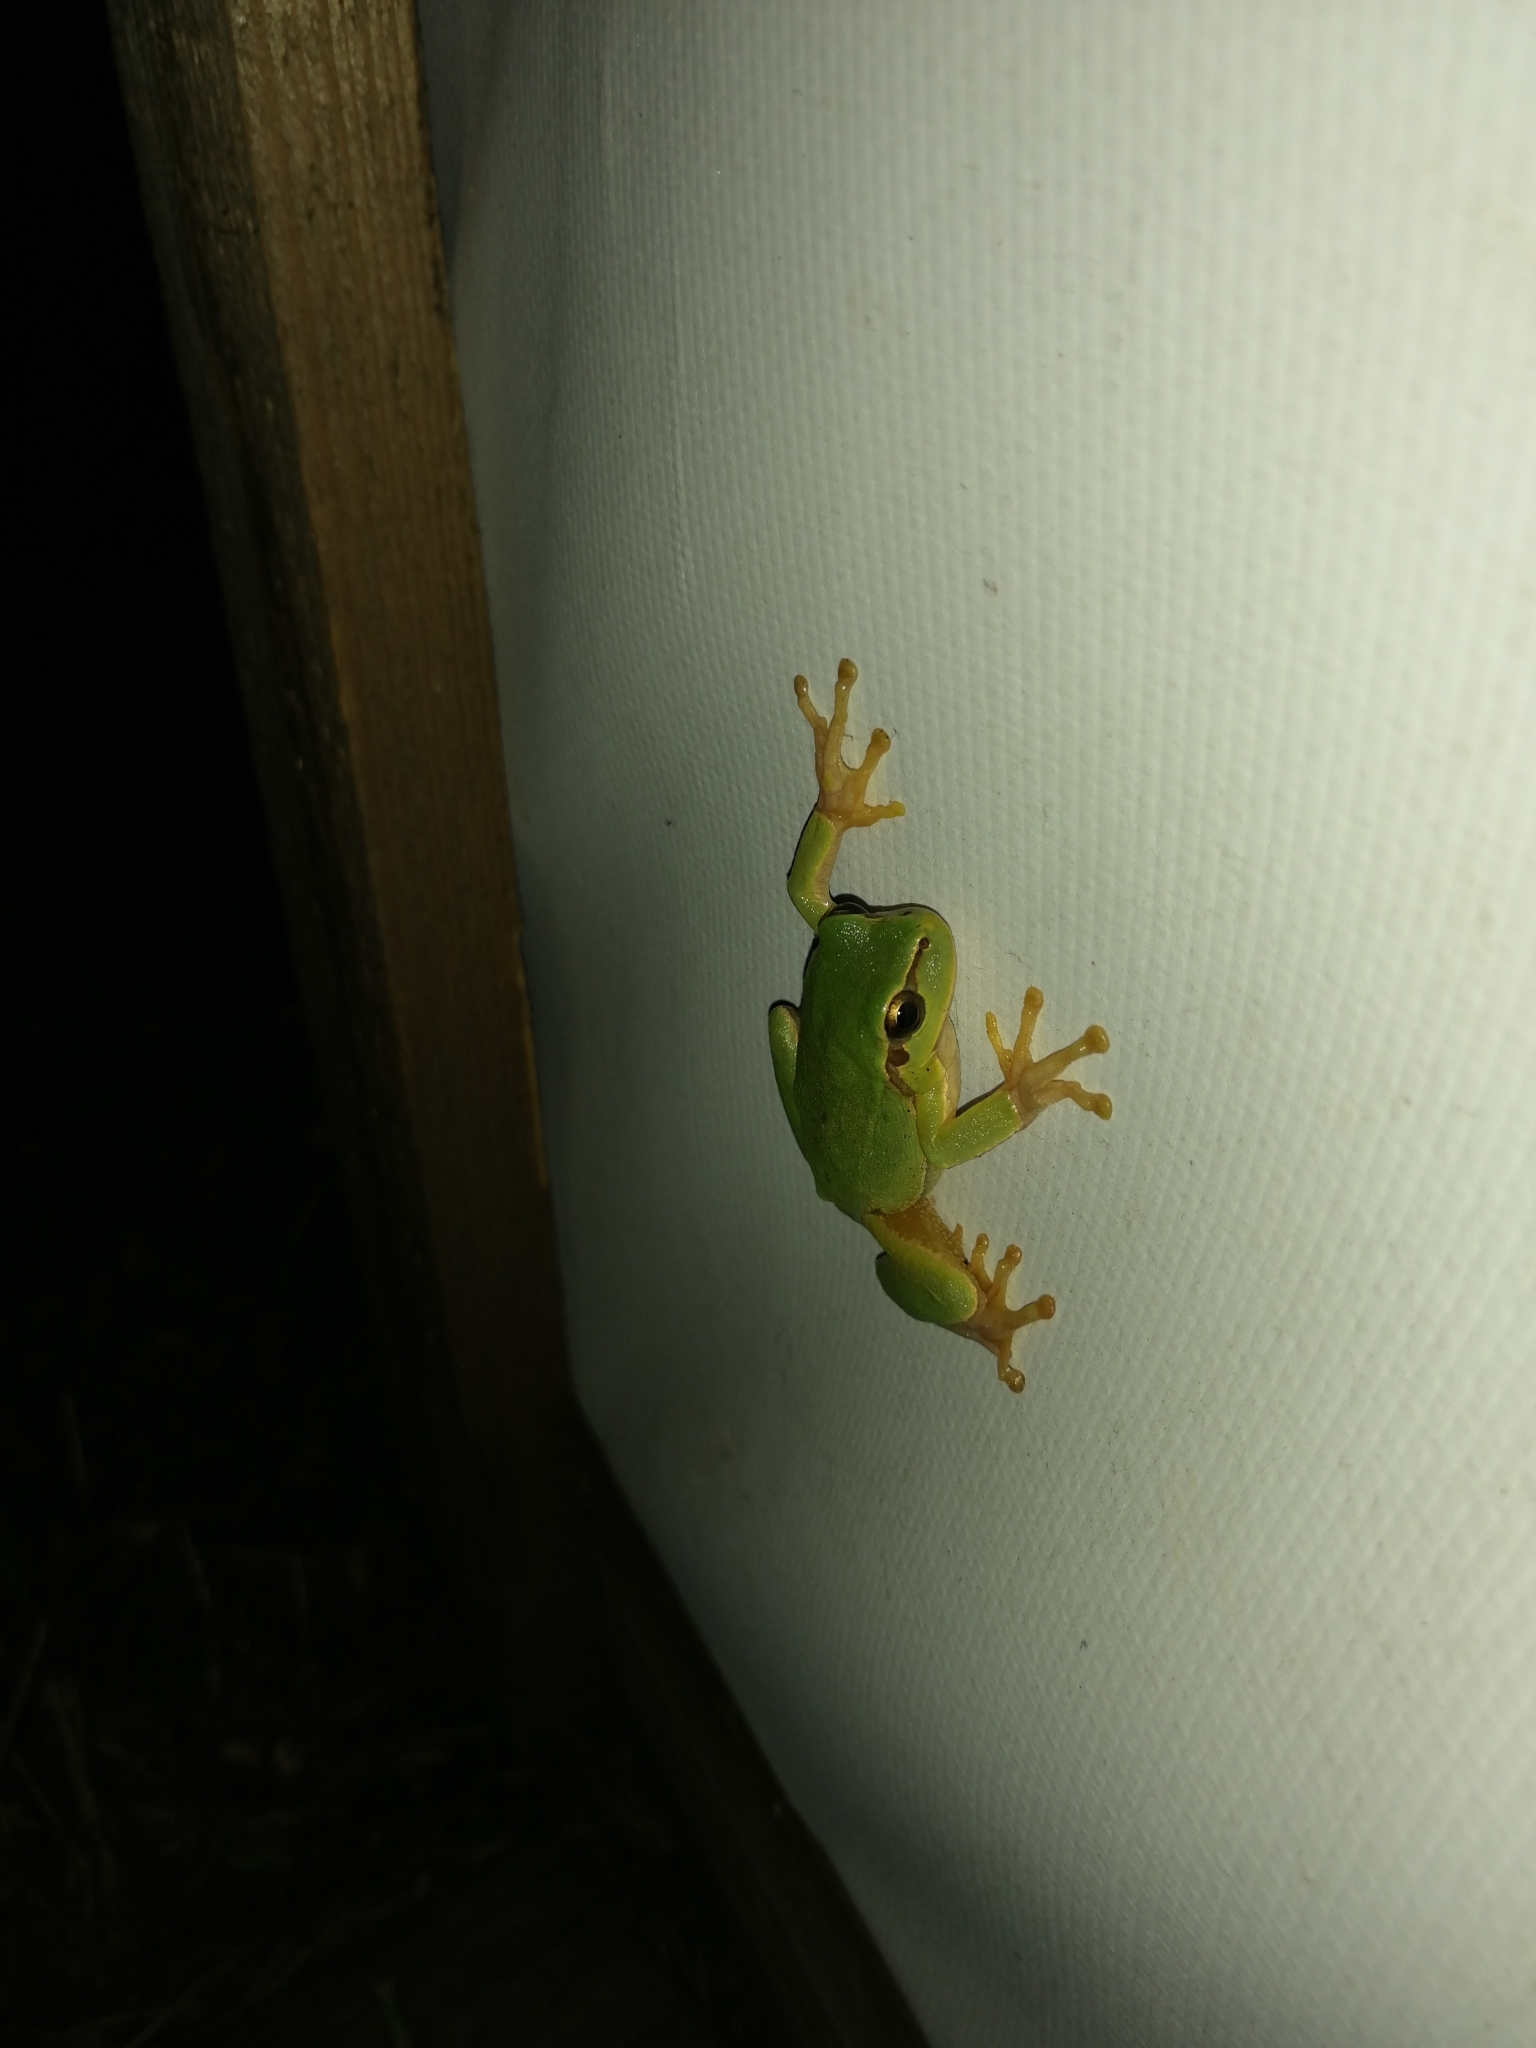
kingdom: Animalia
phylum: Chordata
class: Amphibia
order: Anura
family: Hylidae
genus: Hyla
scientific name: Hyla orientalis
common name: Caucasian treefrog
